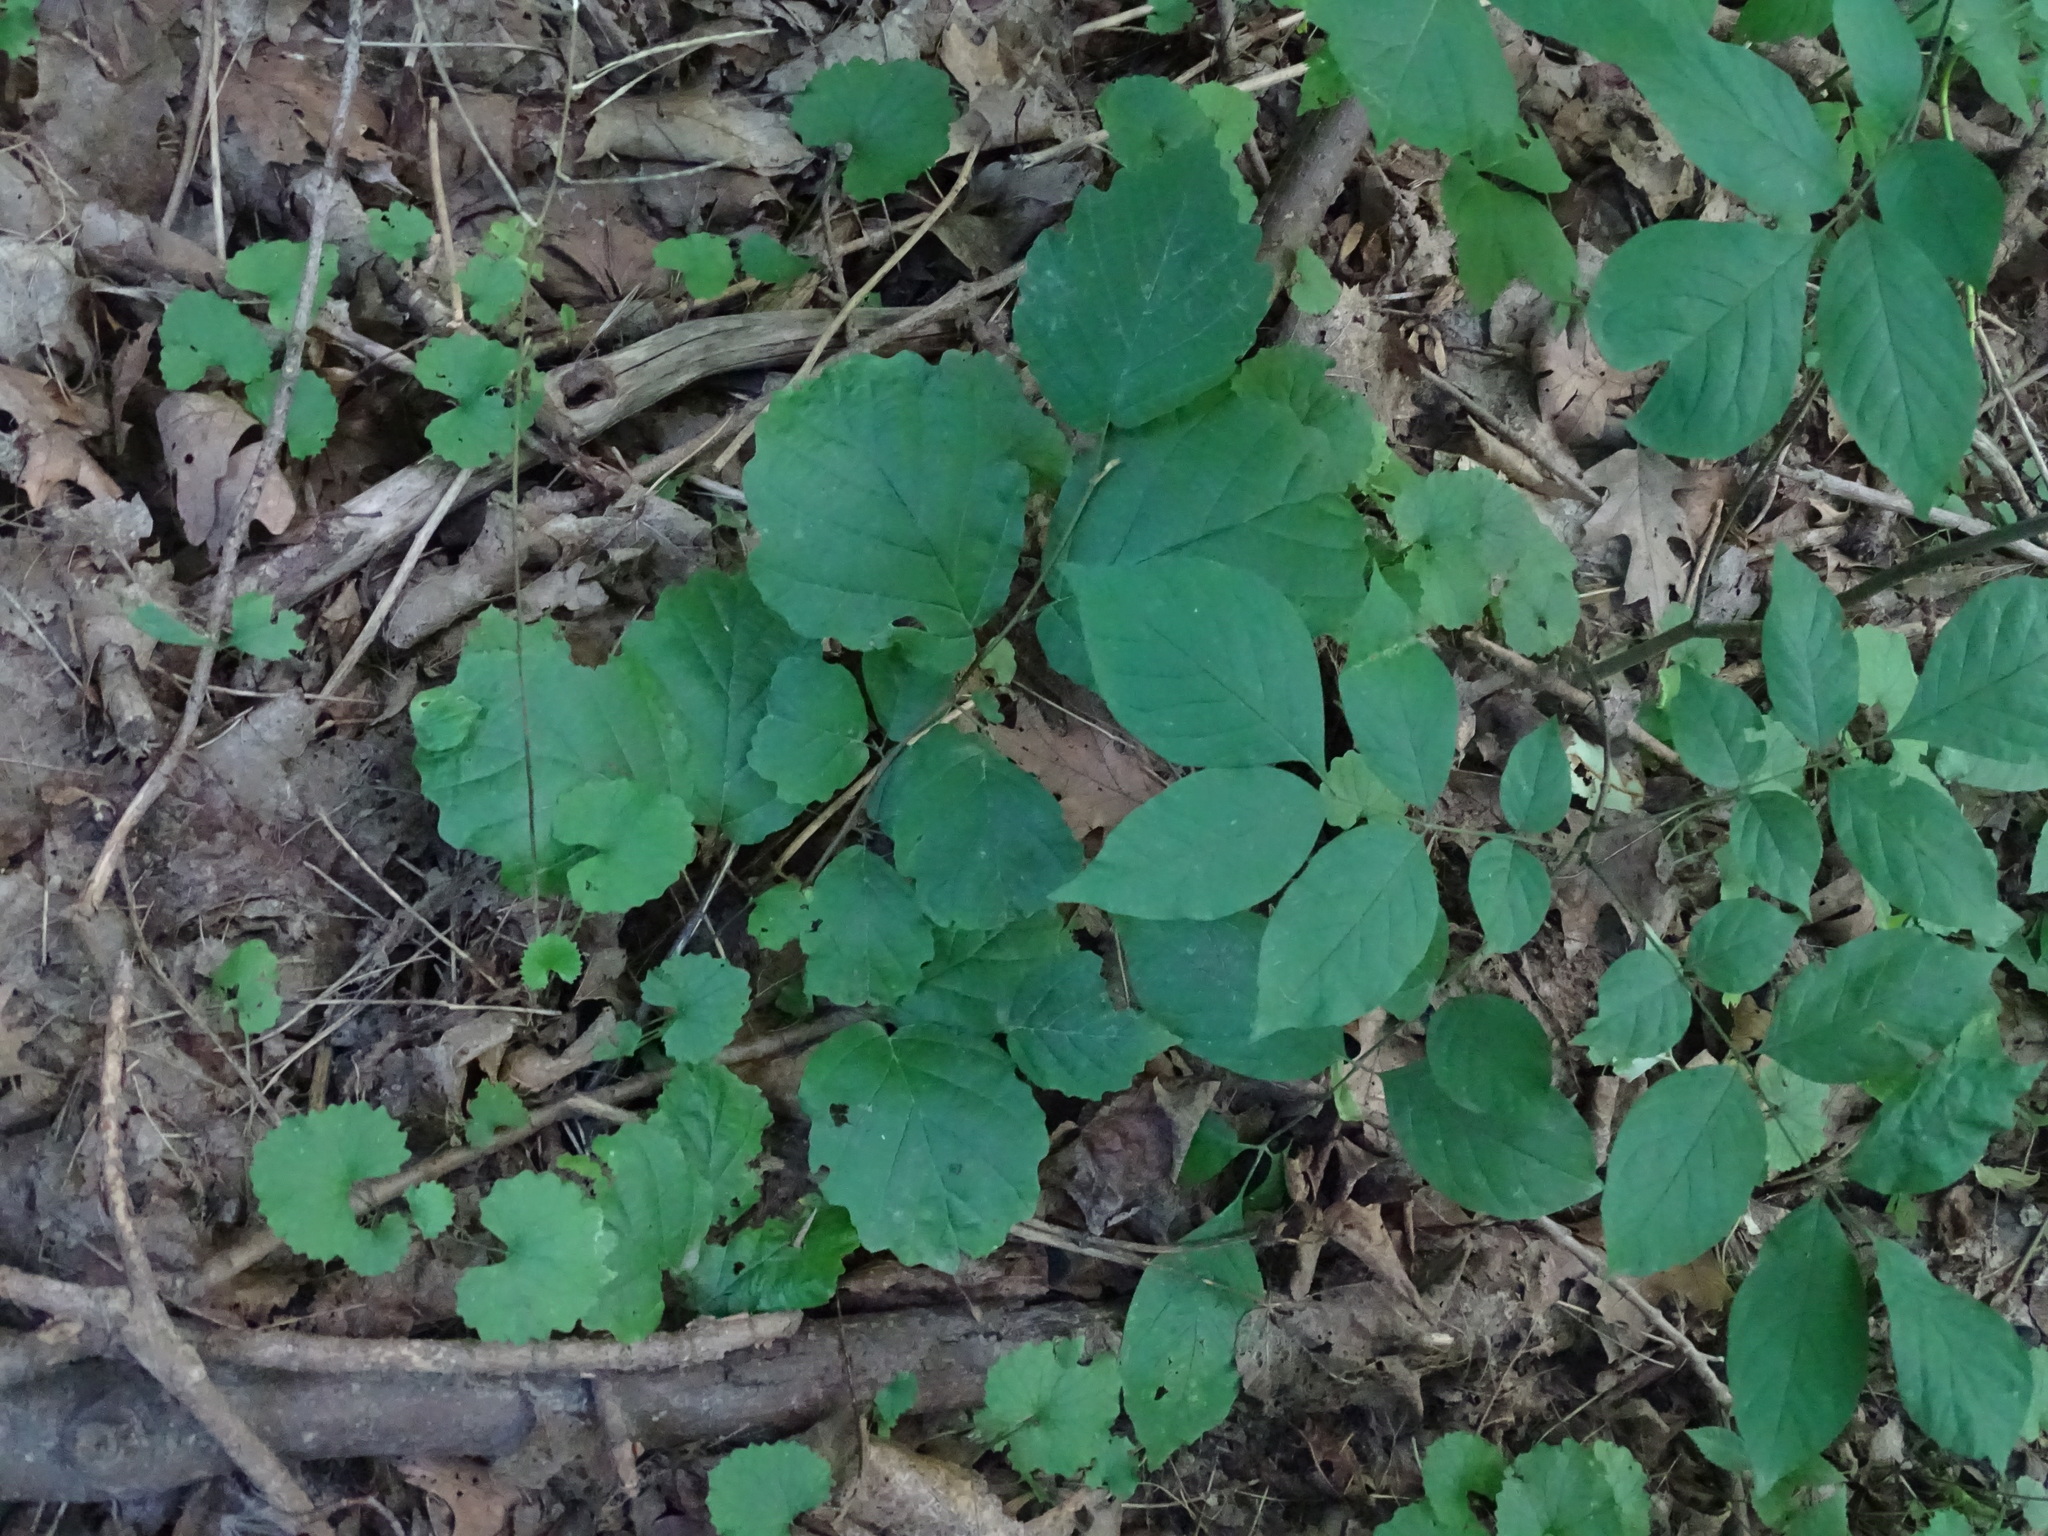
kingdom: Plantae
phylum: Tracheophyta
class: Magnoliopsida
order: Saxifragales
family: Hamamelidaceae
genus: Hamamelis
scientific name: Hamamelis virginiana
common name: Witch-hazel
